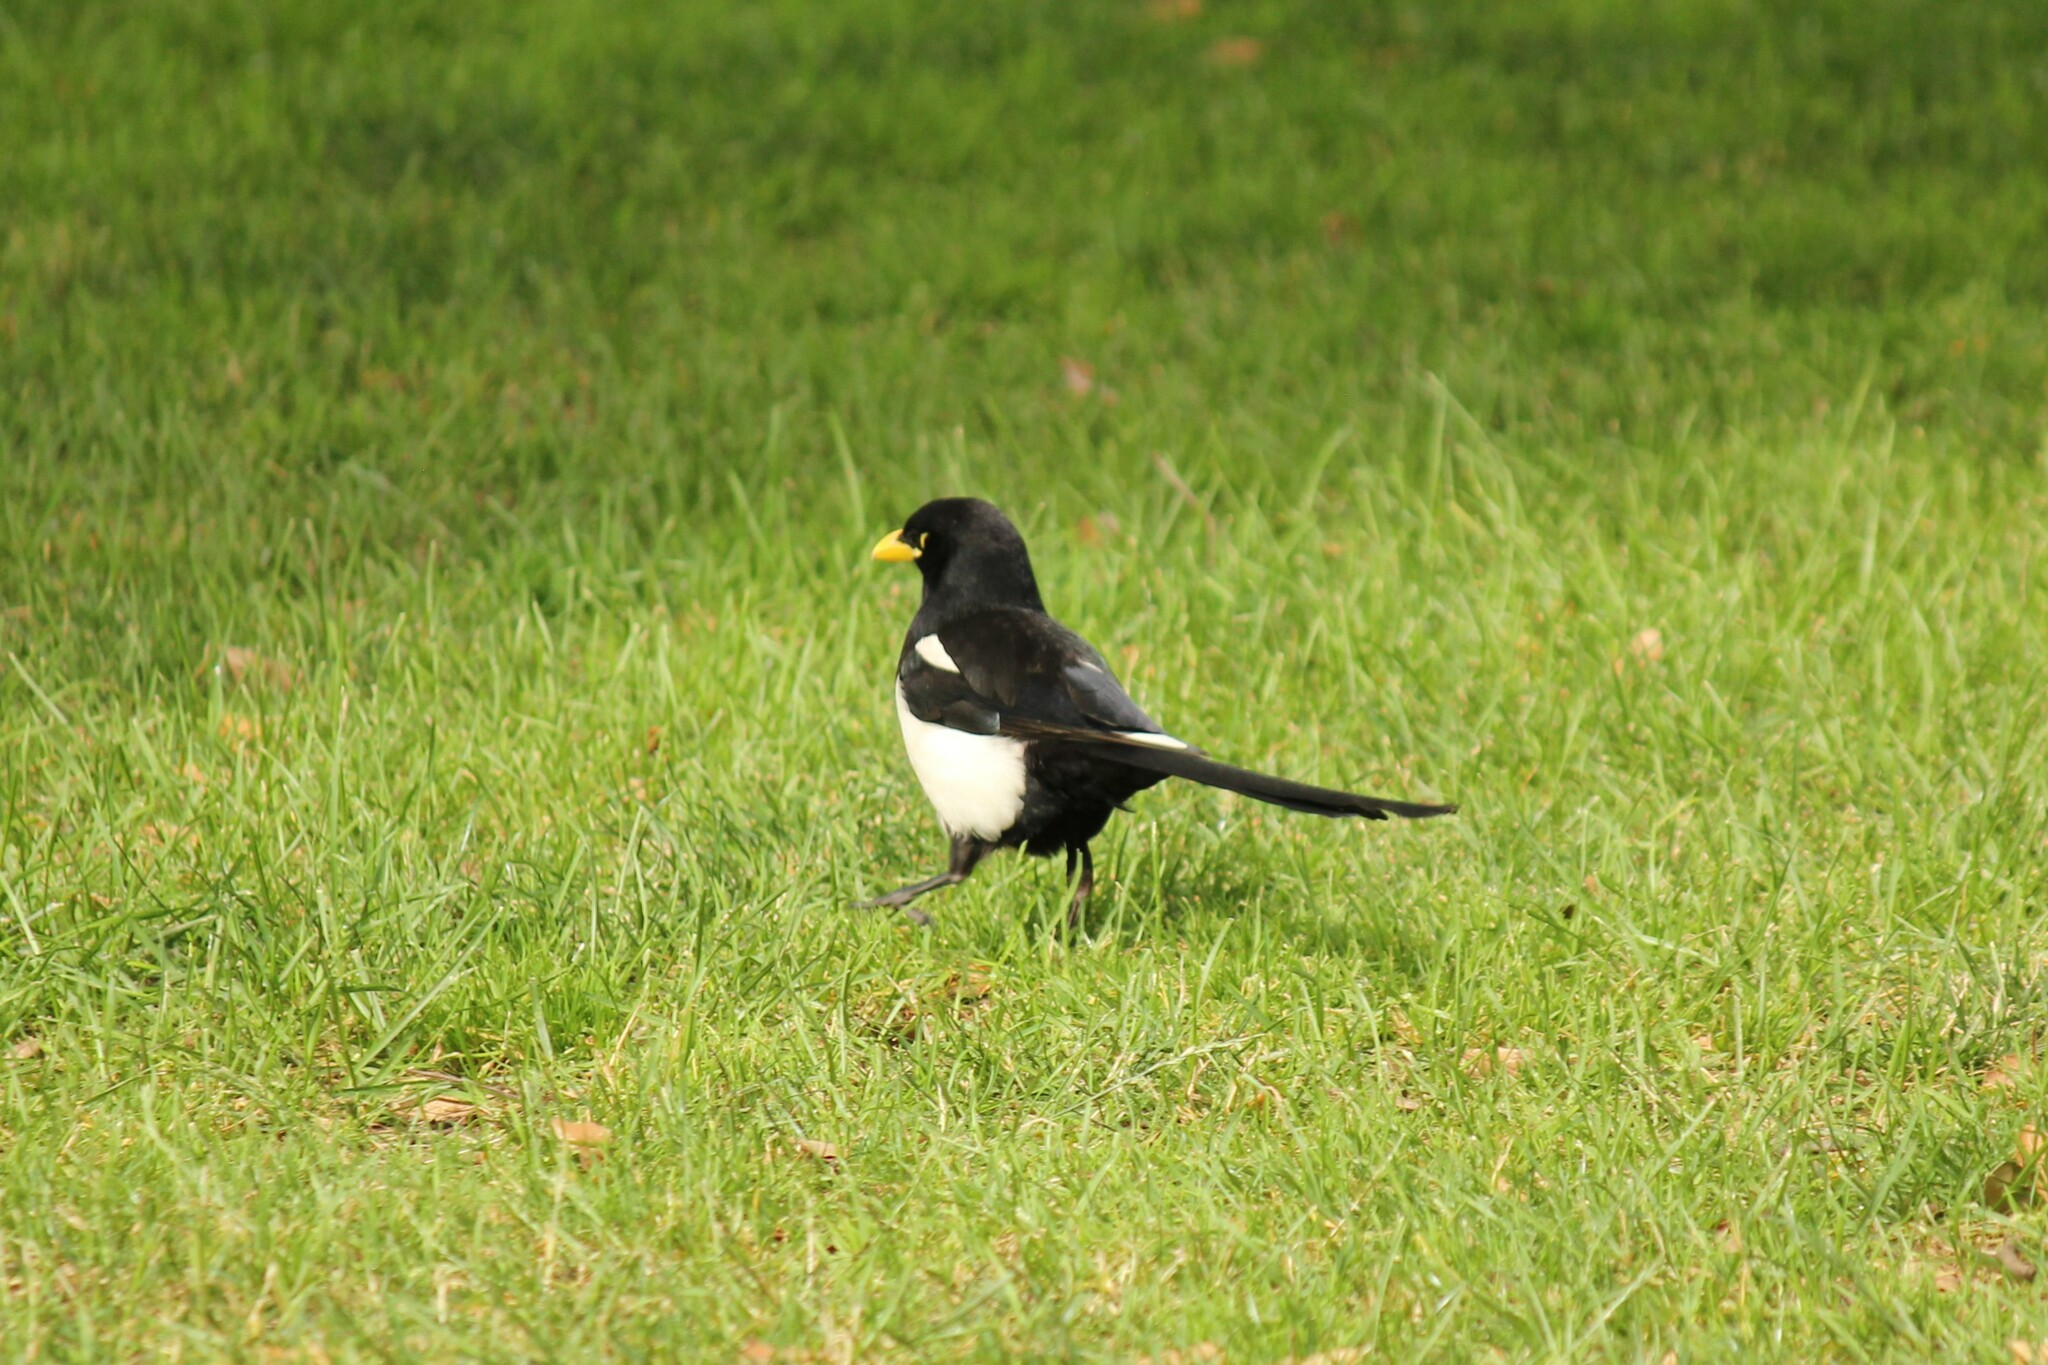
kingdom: Animalia
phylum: Chordata
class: Aves
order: Passeriformes
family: Corvidae
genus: Pica
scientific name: Pica nuttalli
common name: Yellow-billed magpie
